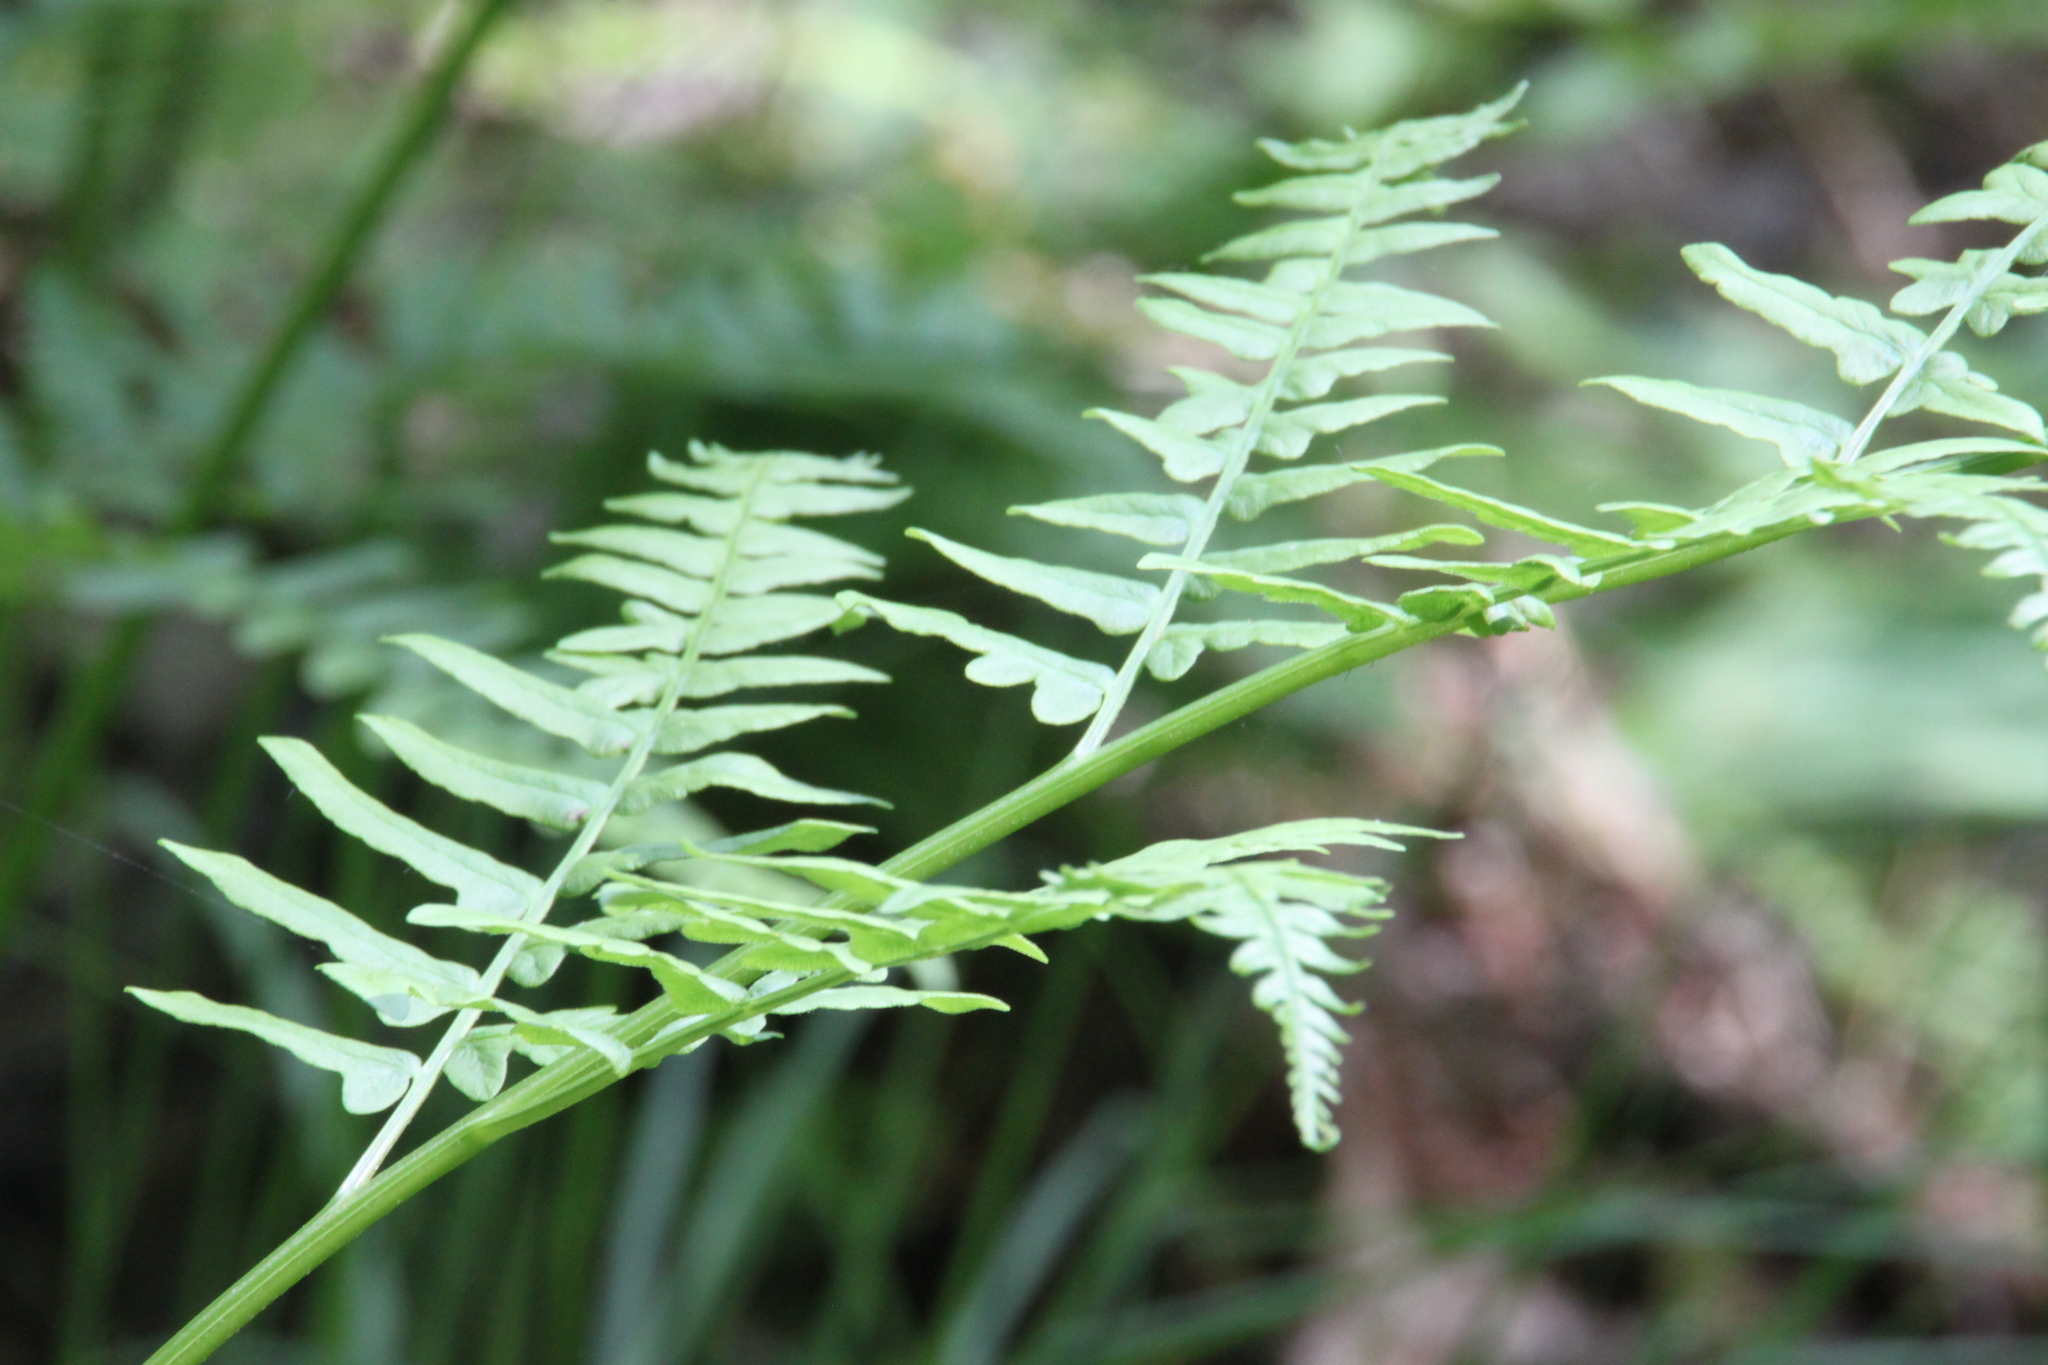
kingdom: Plantae
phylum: Tracheophyta
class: Polypodiopsida
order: Polypodiales
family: Dennstaedtiaceae
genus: Pteridium
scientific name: Pteridium aquilinum
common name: Bracken
